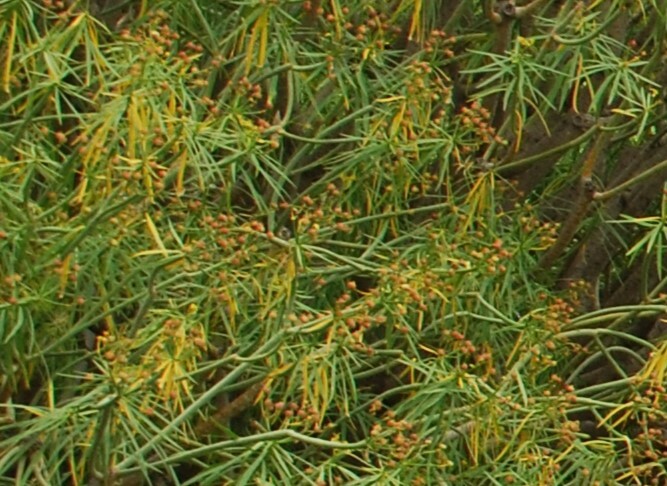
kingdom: Plantae
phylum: Tracheophyta
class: Magnoliopsida
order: Malpighiales
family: Euphorbiaceae
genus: Euphorbia
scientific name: Euphorbia lamarckii
